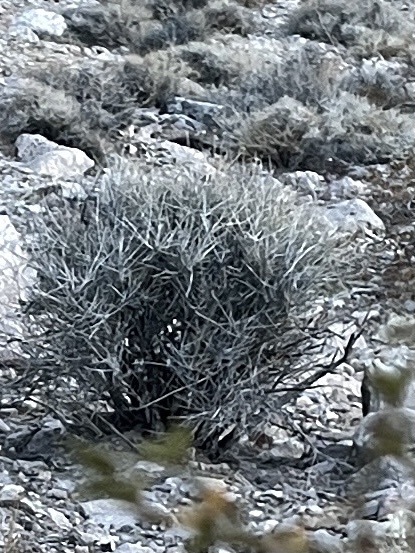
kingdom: Plantae
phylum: Tracheophyta
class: Gnetopsida
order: Ephedrales
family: Ephedraceae
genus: Ephedra
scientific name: Ephedra nevadensis
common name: Gray ephedra
